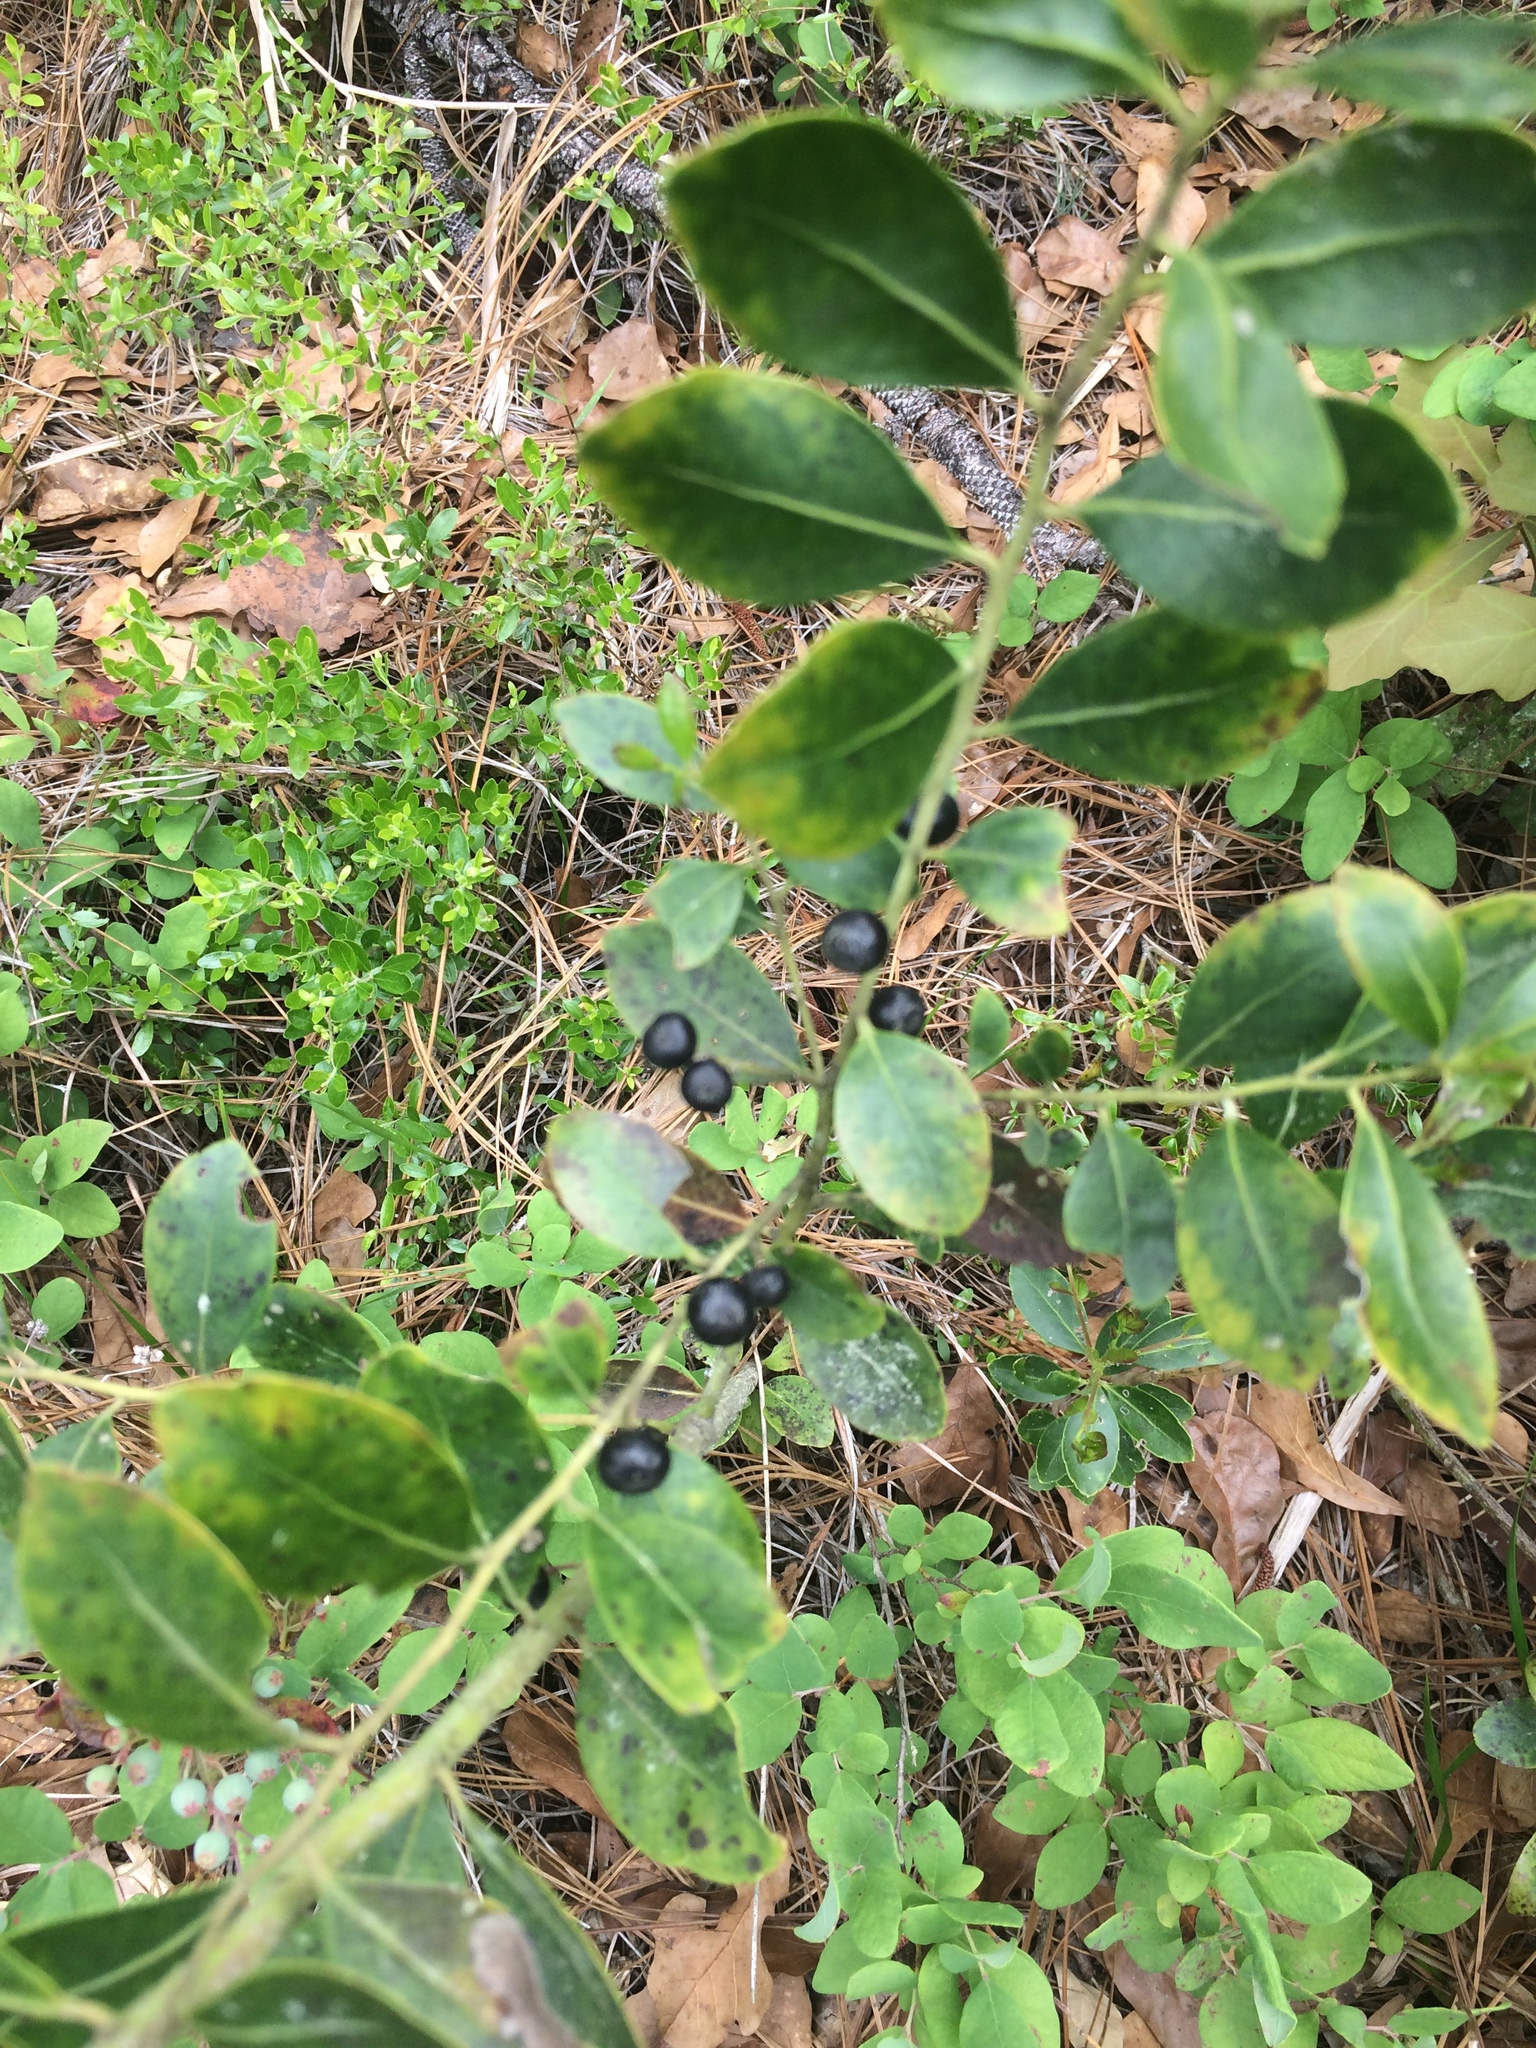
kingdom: Plantae
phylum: Tracheophyta
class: Magnoliopsida
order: Aquifoliales
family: Aquifoliaceae
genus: Ilex
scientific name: Ilex glabra
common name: Bitter gallberry
